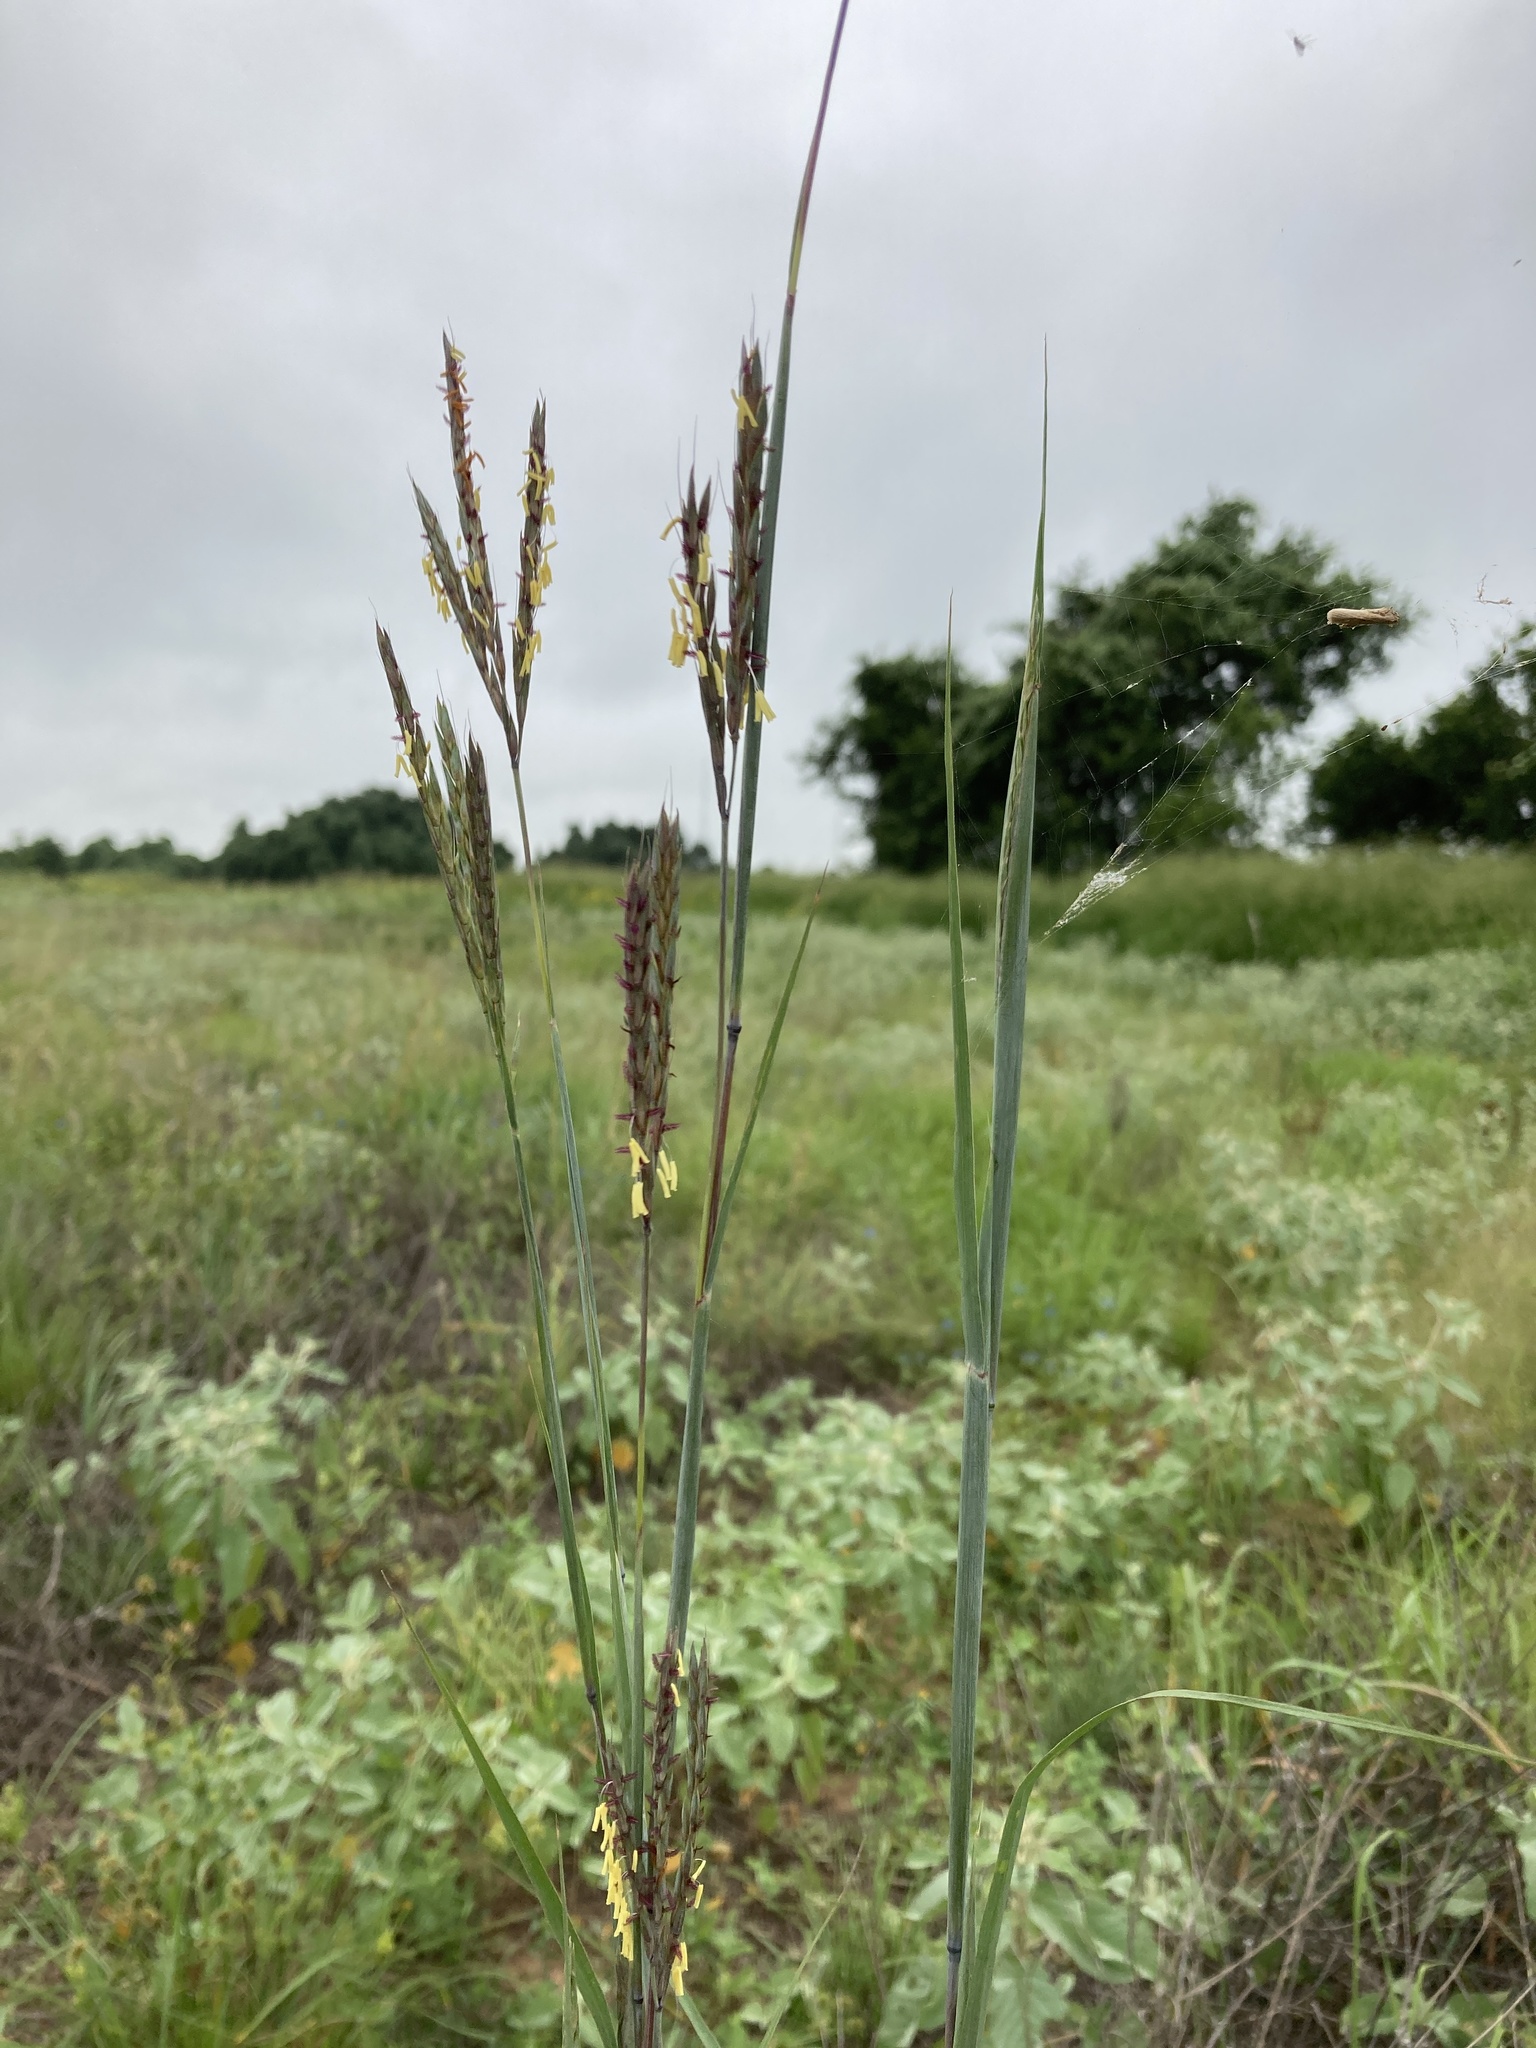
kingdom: Plantae
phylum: Tracheophyta
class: Liliopsida
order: Poales
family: Poaceae
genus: Andropogon
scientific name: Andropogon gerardi
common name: Big bluestem
